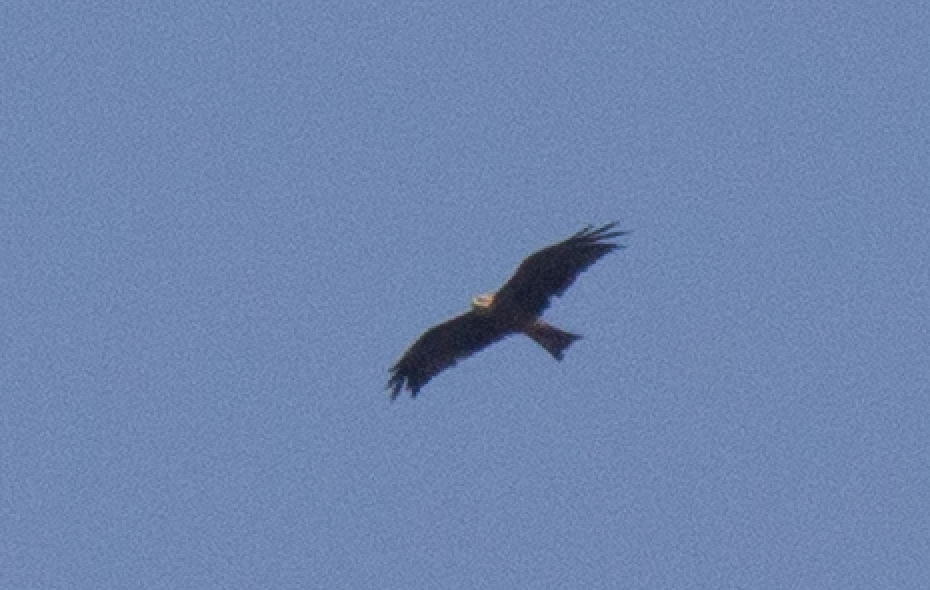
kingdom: Animalia
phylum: Chordata
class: Aves
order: Accipitriformes
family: Accipitridae
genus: Milvus
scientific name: Milvus migrans
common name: Black kite
